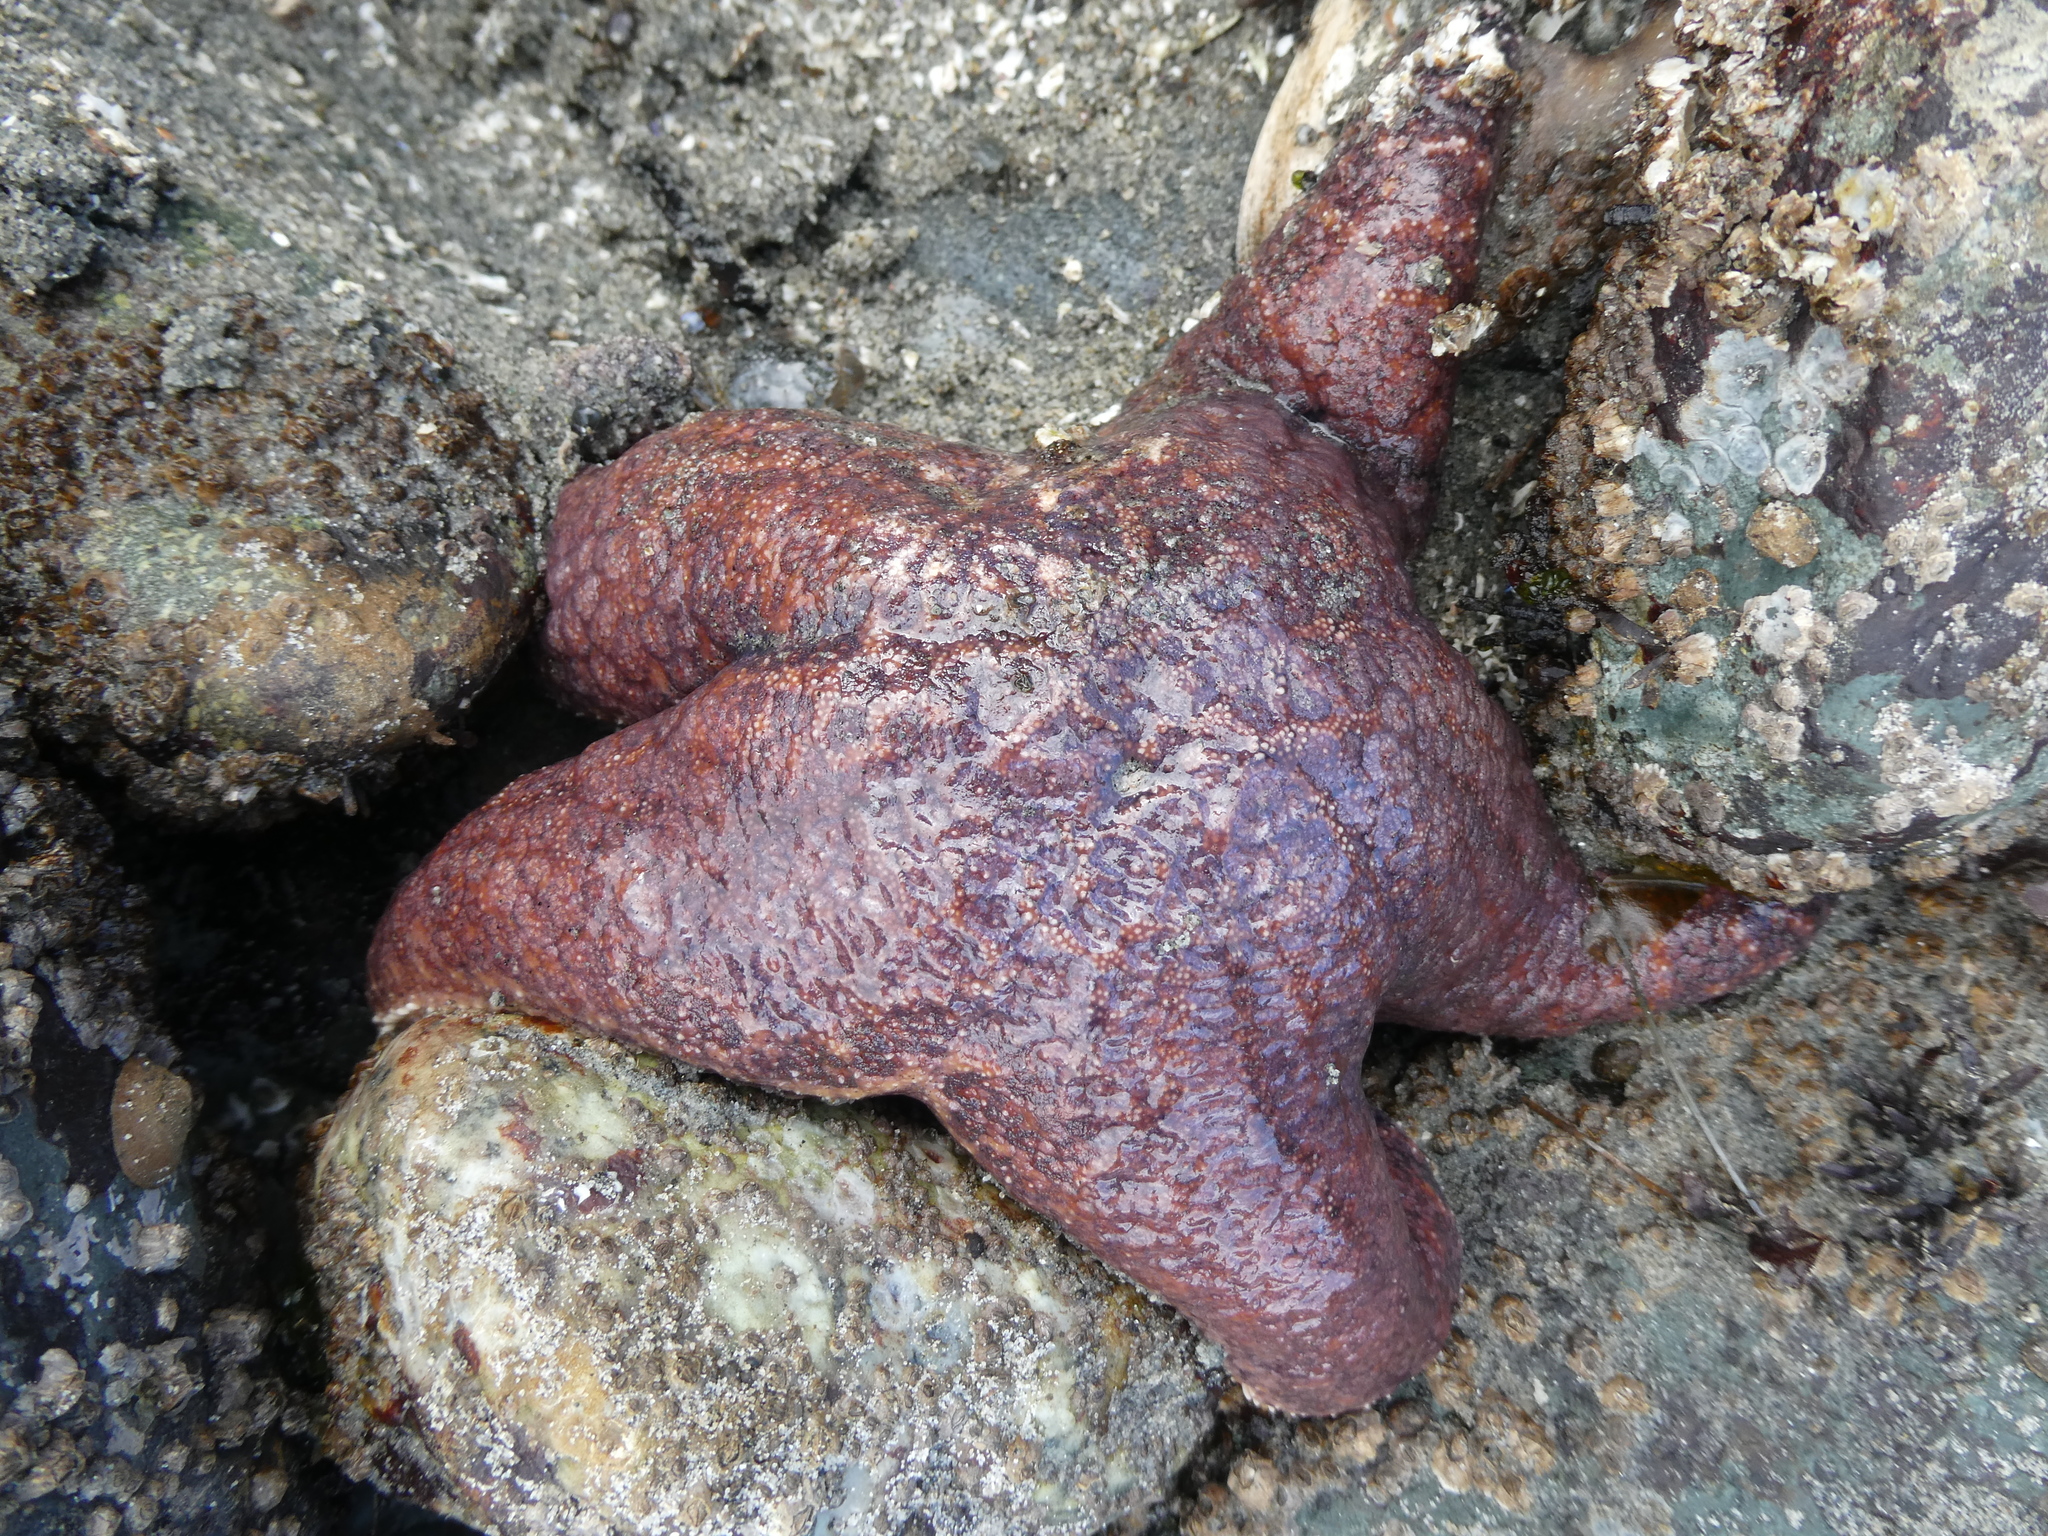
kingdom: Animalia
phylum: Echinodermata
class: Asteroidea
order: Forcipulatida
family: Asteriidae
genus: Pisaster
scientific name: Pisaster ochraceus
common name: Ochre stars
